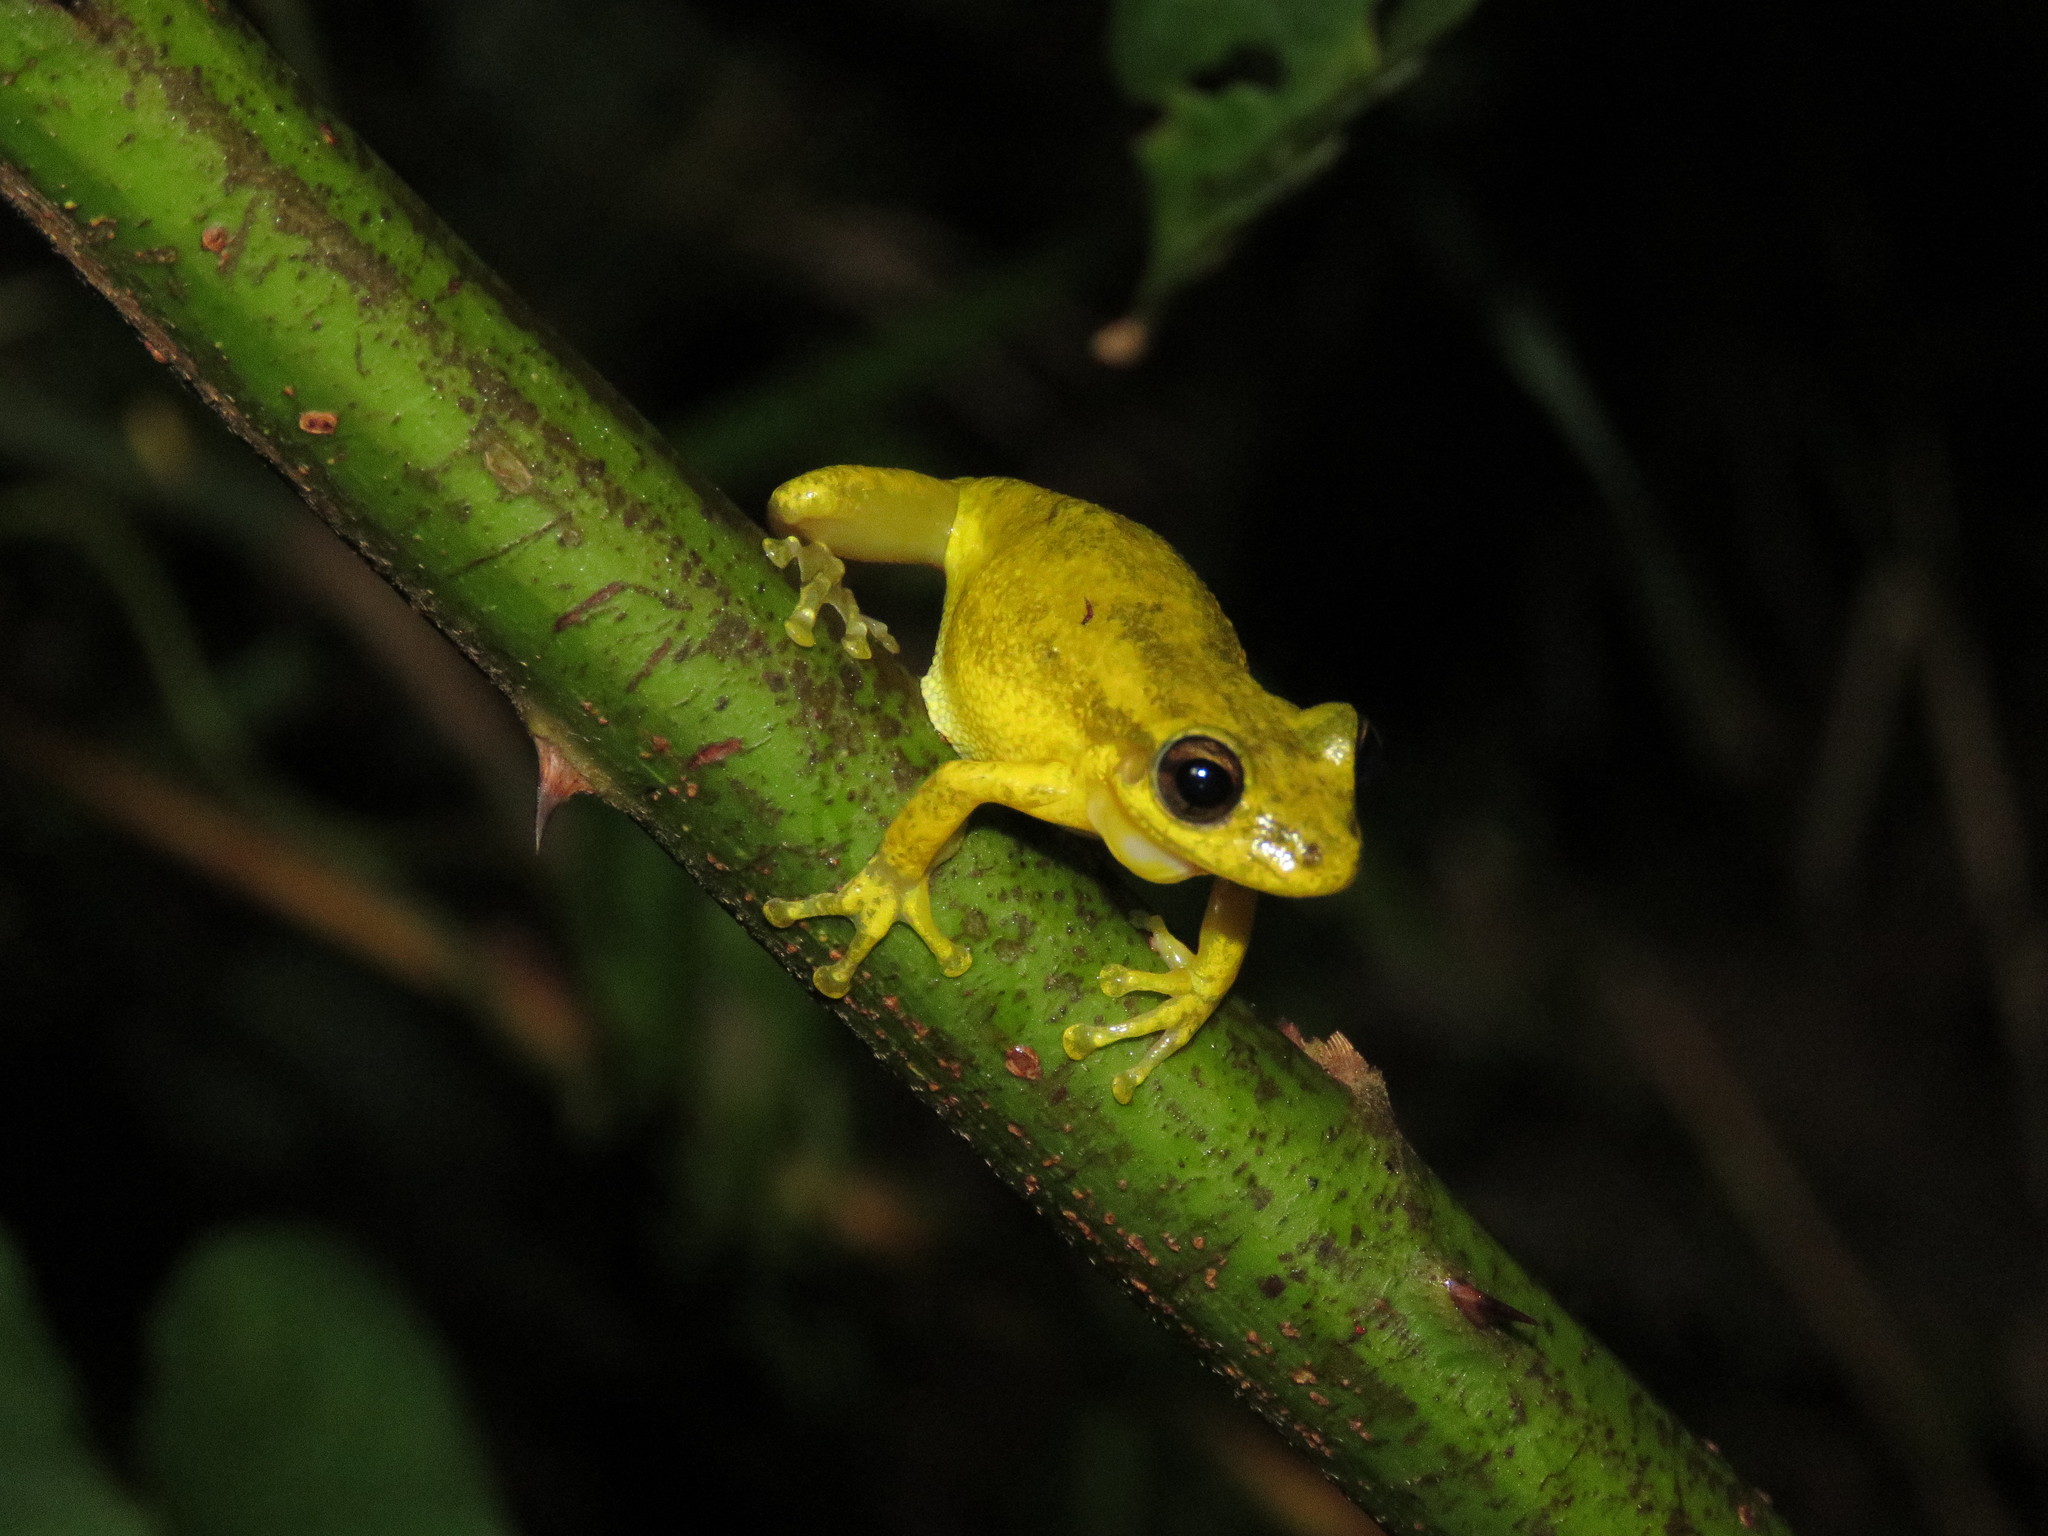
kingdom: Animalia
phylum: Chordata
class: Amphibia
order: Anura
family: Hylidae
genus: Scinax
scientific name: Scinax ruber
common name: Red snouted treefrog
